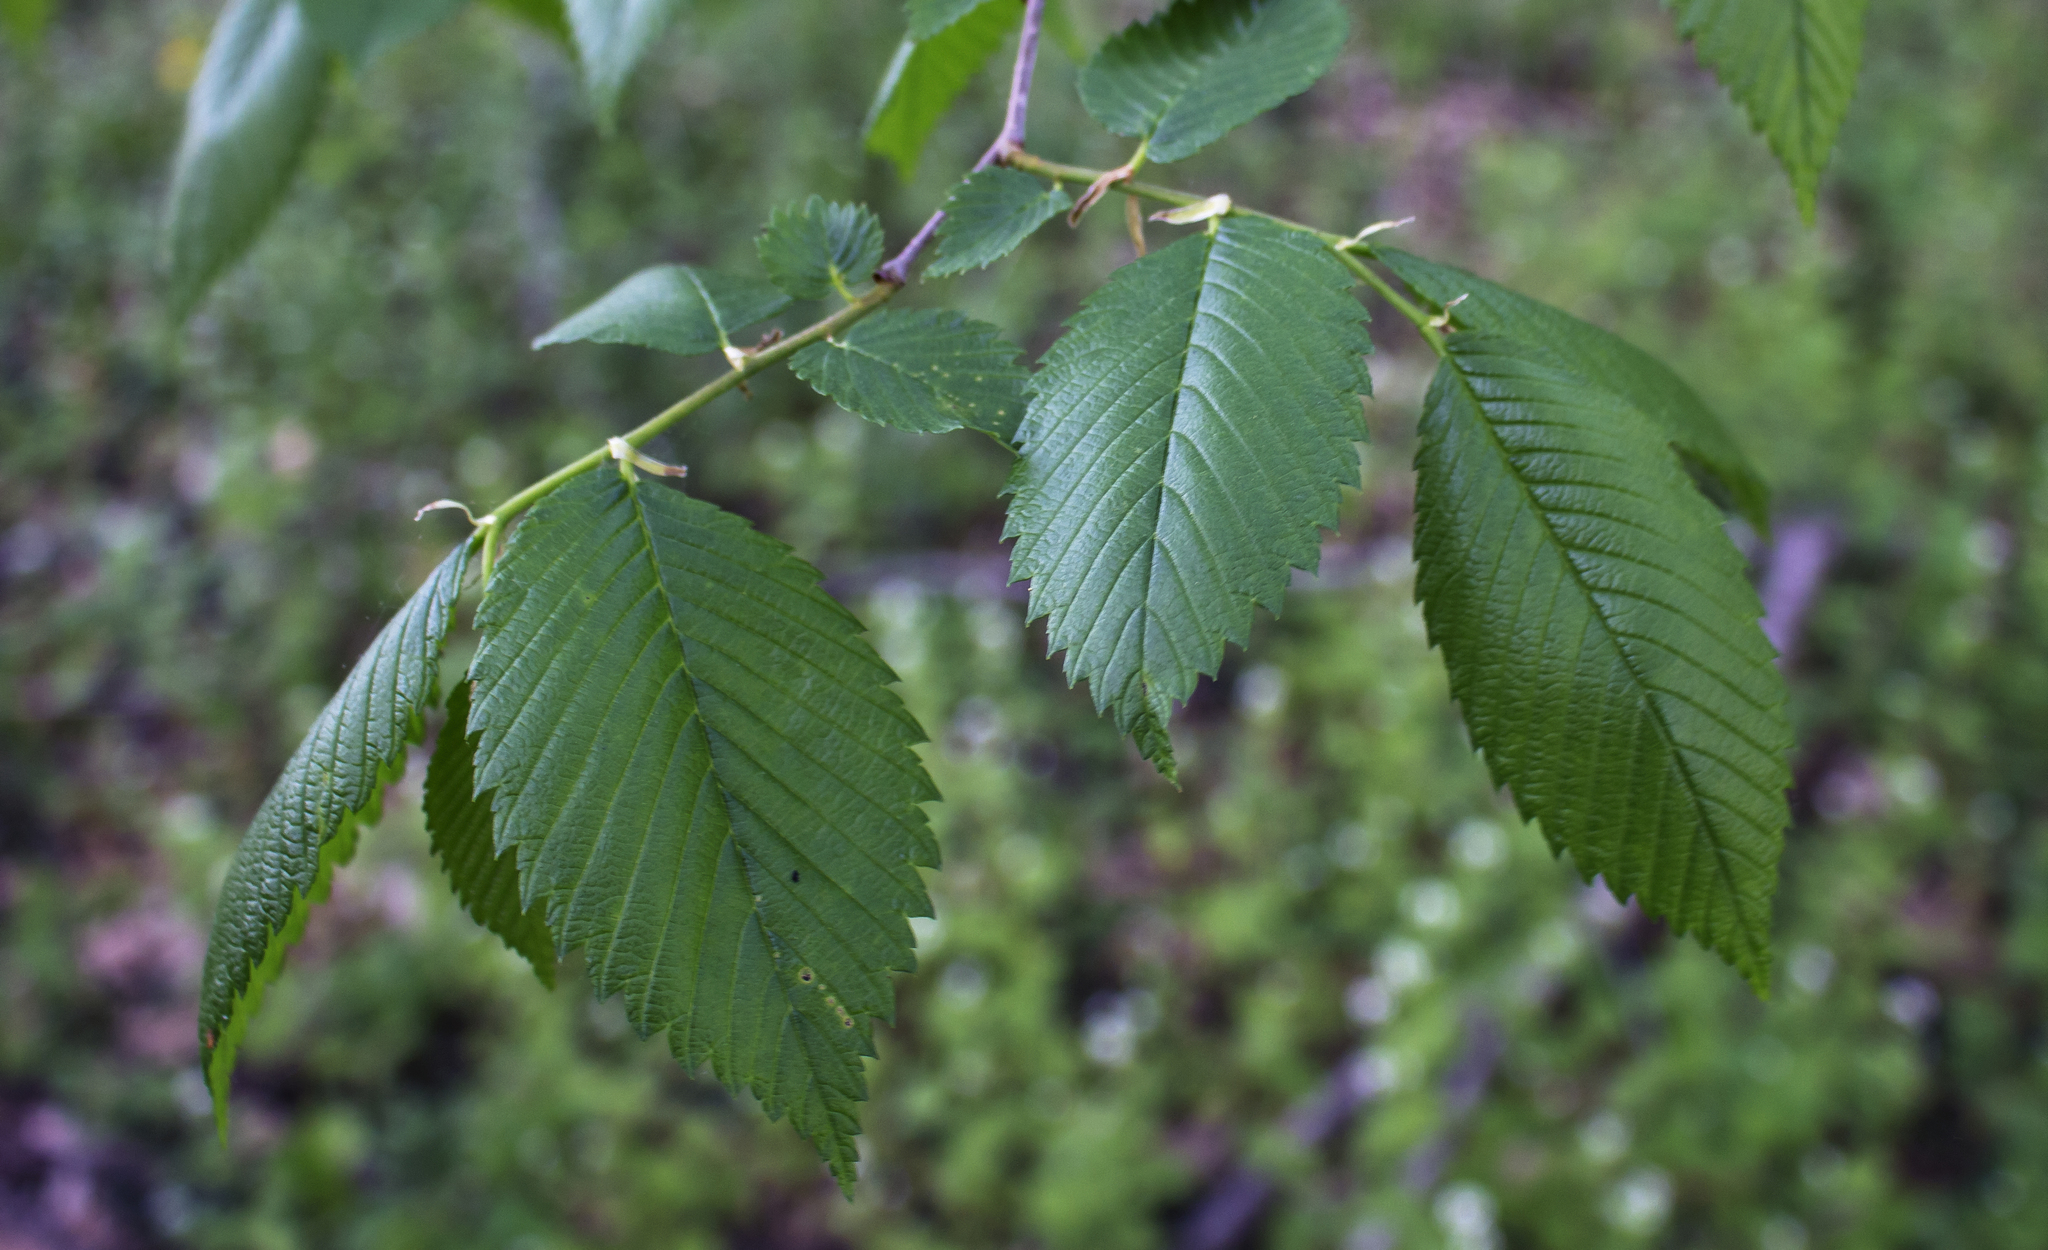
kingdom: Plantae
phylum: Tracheophyta
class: Magnoliopsida
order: Rosales
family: Ulmaceae
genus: Ulmus
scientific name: Ulmus americana
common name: American elm
